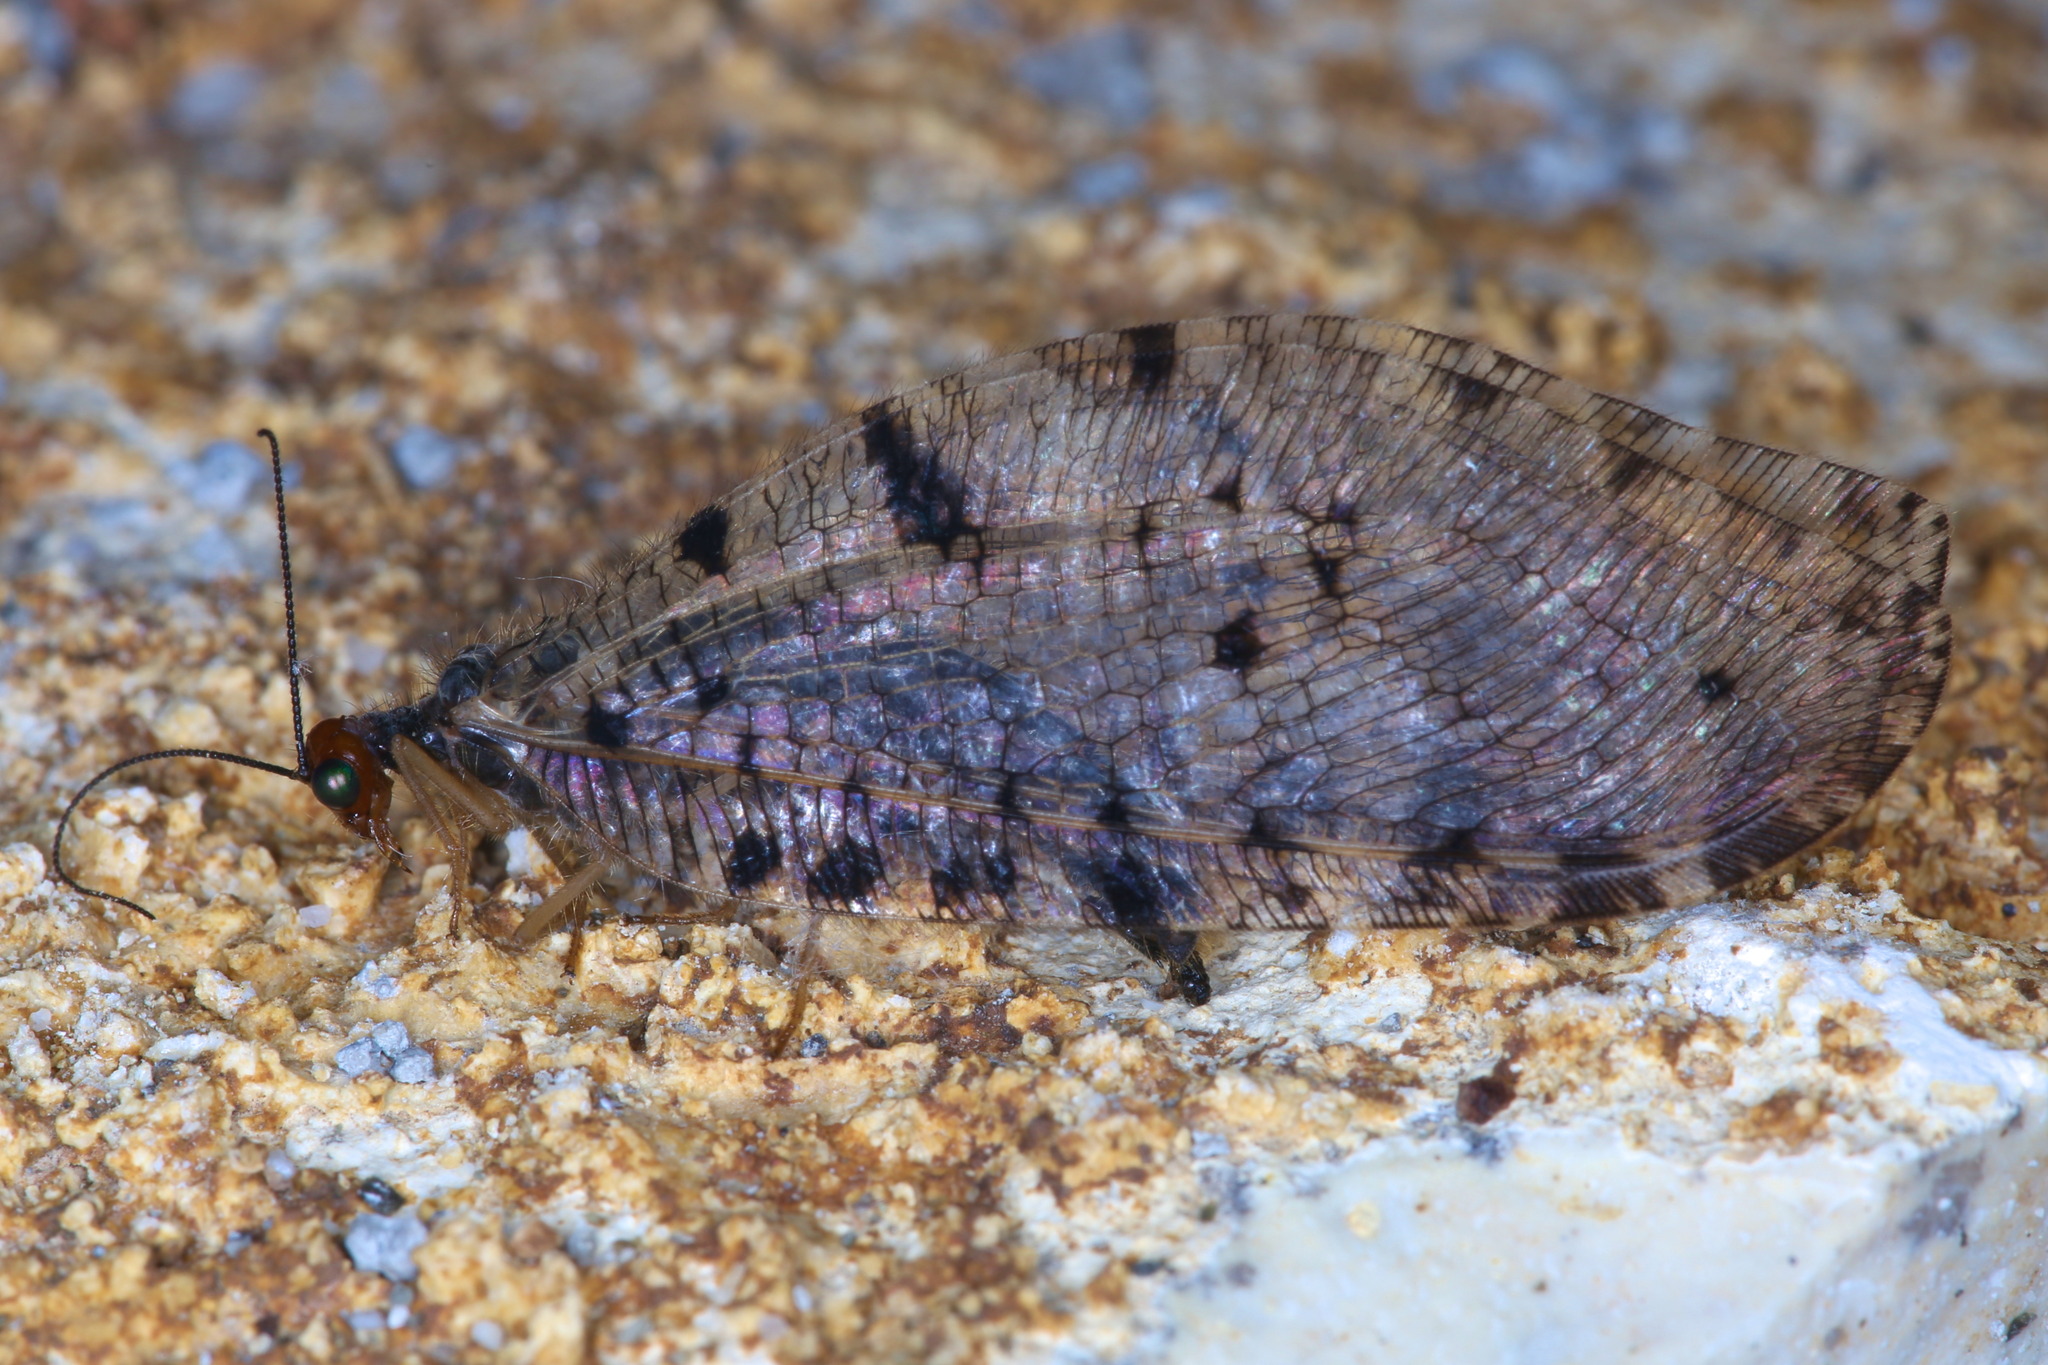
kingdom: Animalia
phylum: Arthropoda
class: Insecta
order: Neuroptera
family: Osmylidae
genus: Osmylus
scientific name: Osmylus fulvicephalus
